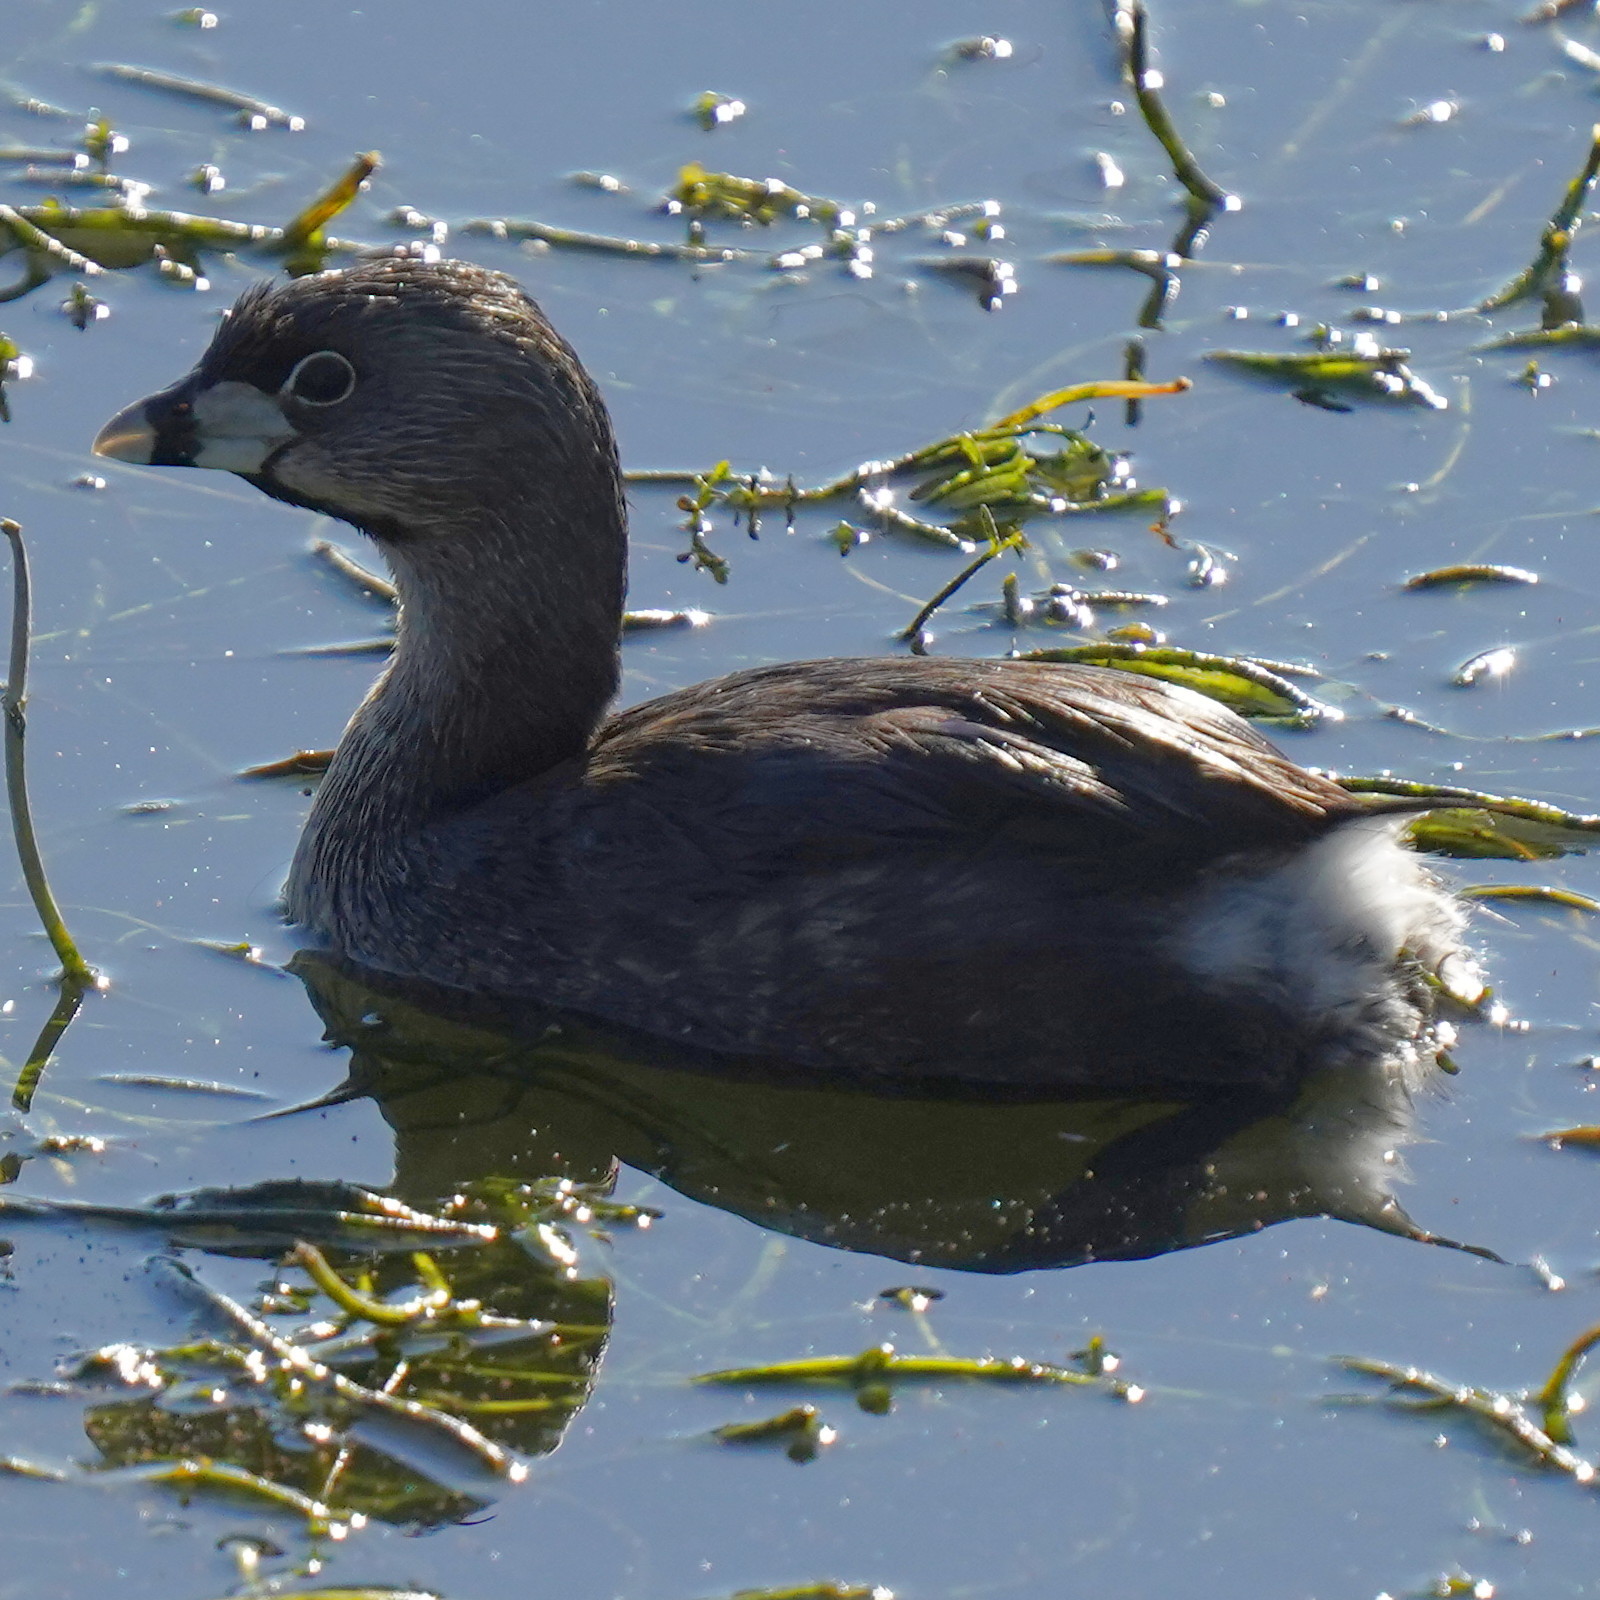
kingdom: Animalia
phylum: Chordata
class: Aves
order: Podicipediformes
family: Podicipedidae
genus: Podilymbus
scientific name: Podilymbus podiceps
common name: Pied-billed grebe
